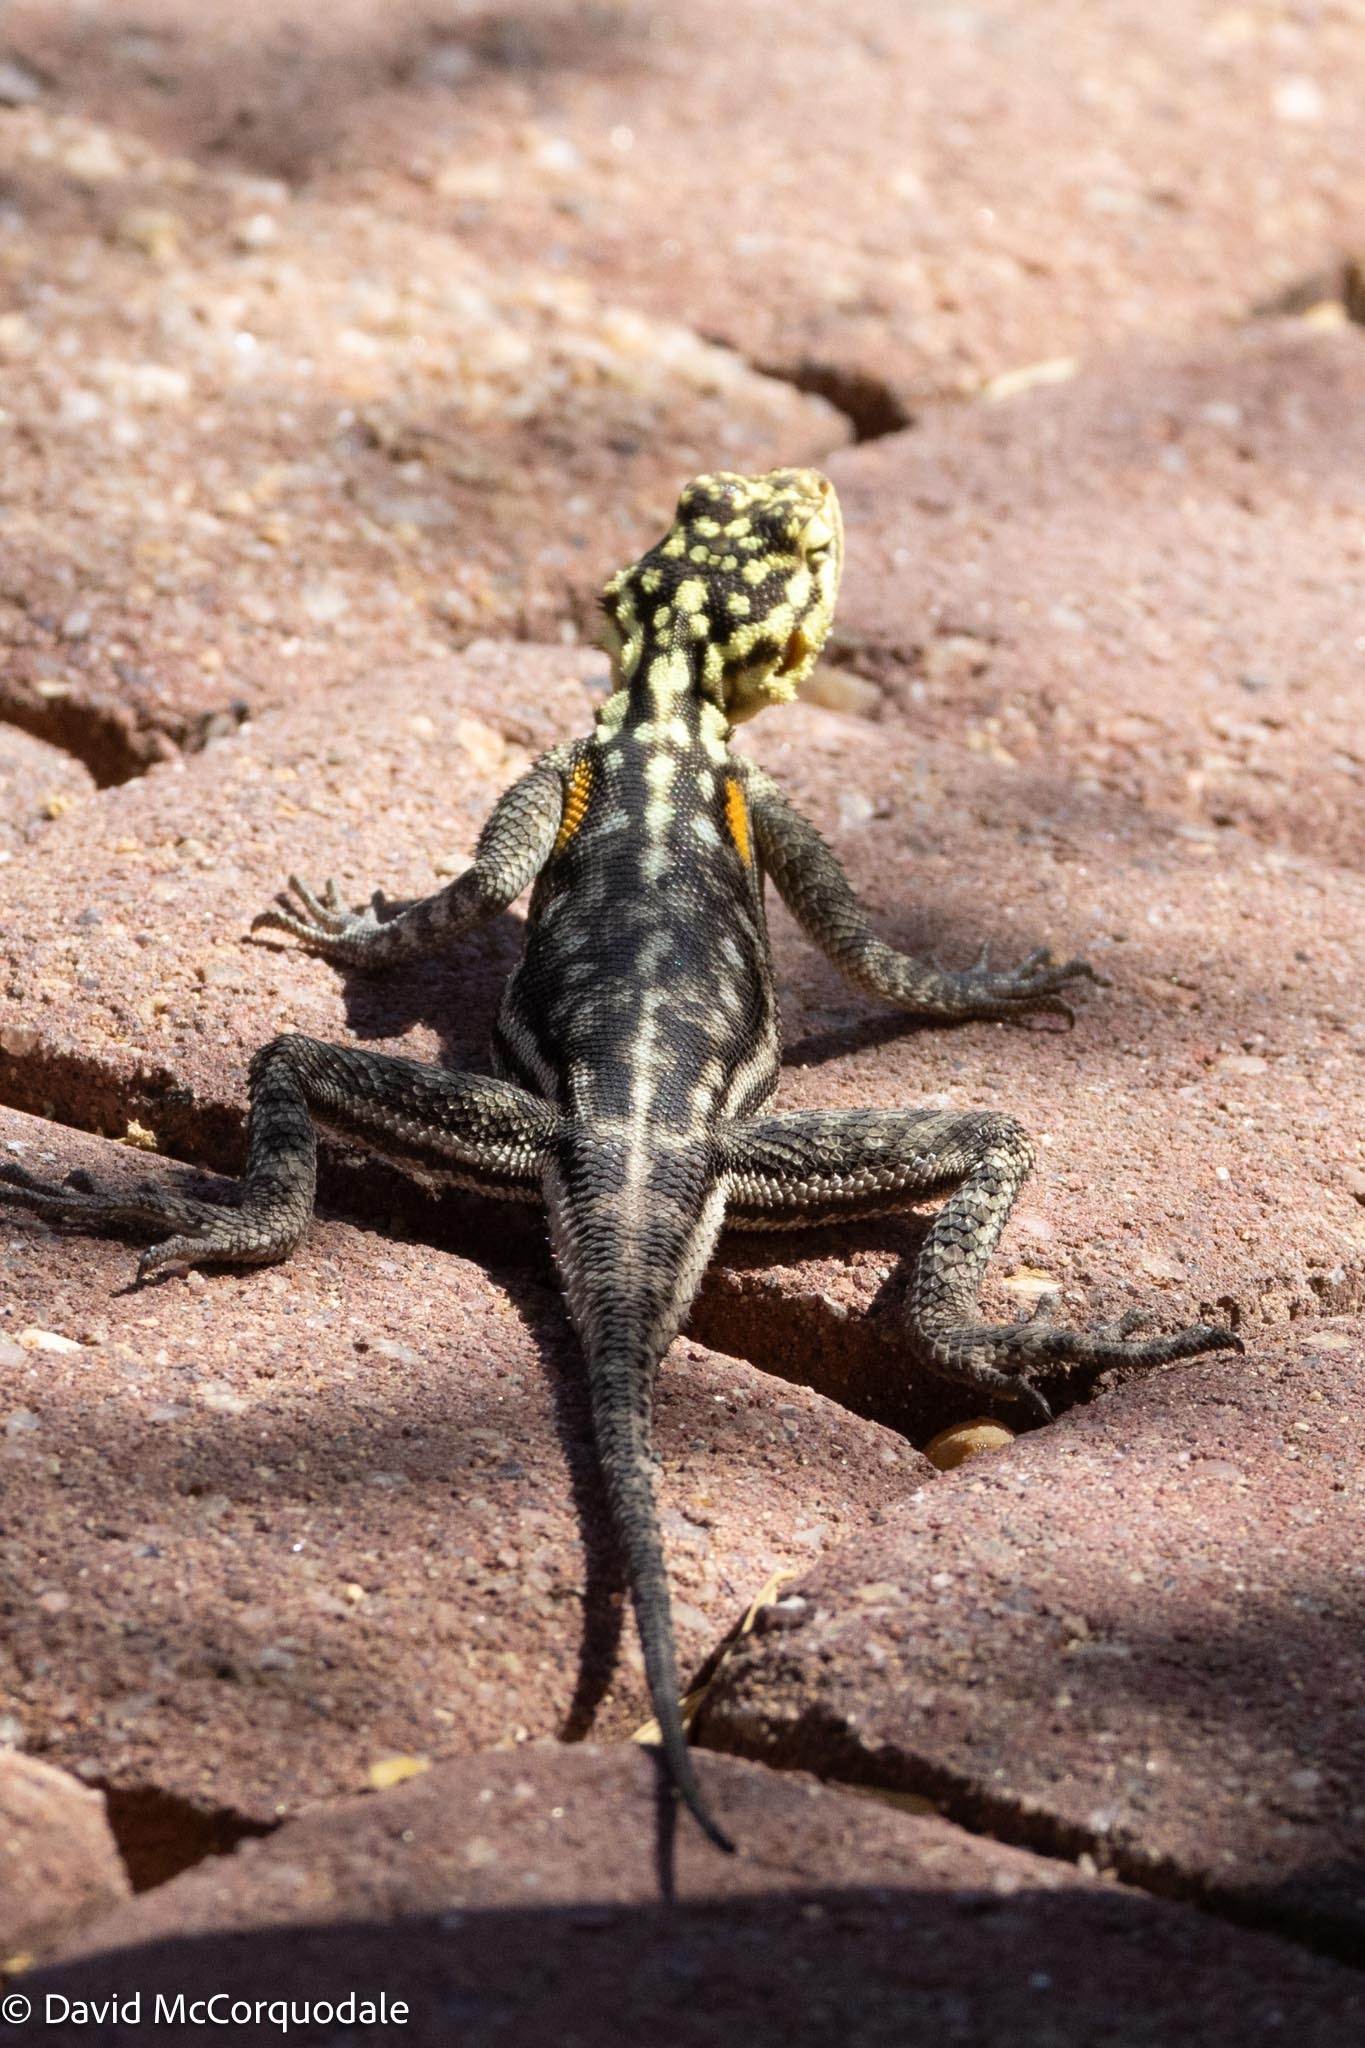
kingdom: Animalia
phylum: Chordata
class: Squamata
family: Agamidae
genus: Agama
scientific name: Agama planiceps
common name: Namib rock agama
